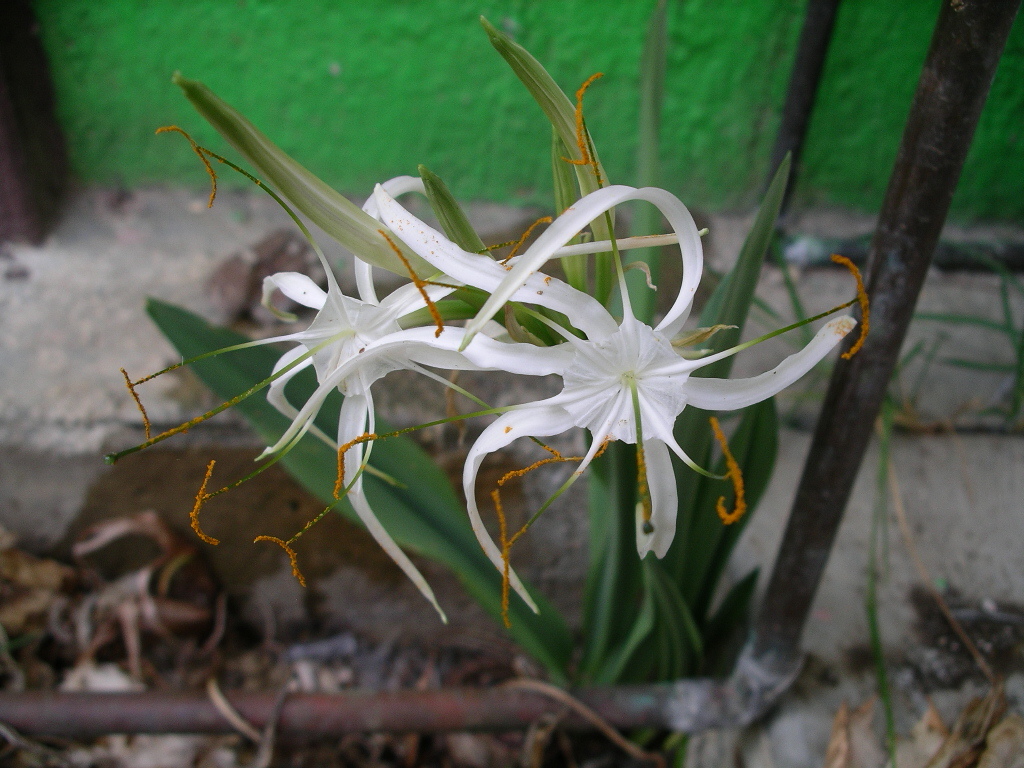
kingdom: Plantae
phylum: Tracheophyta
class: Liliopsida
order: Asparagales
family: Amaryllidaceae
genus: Hymenocallis
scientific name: Hymenocallis cleo
